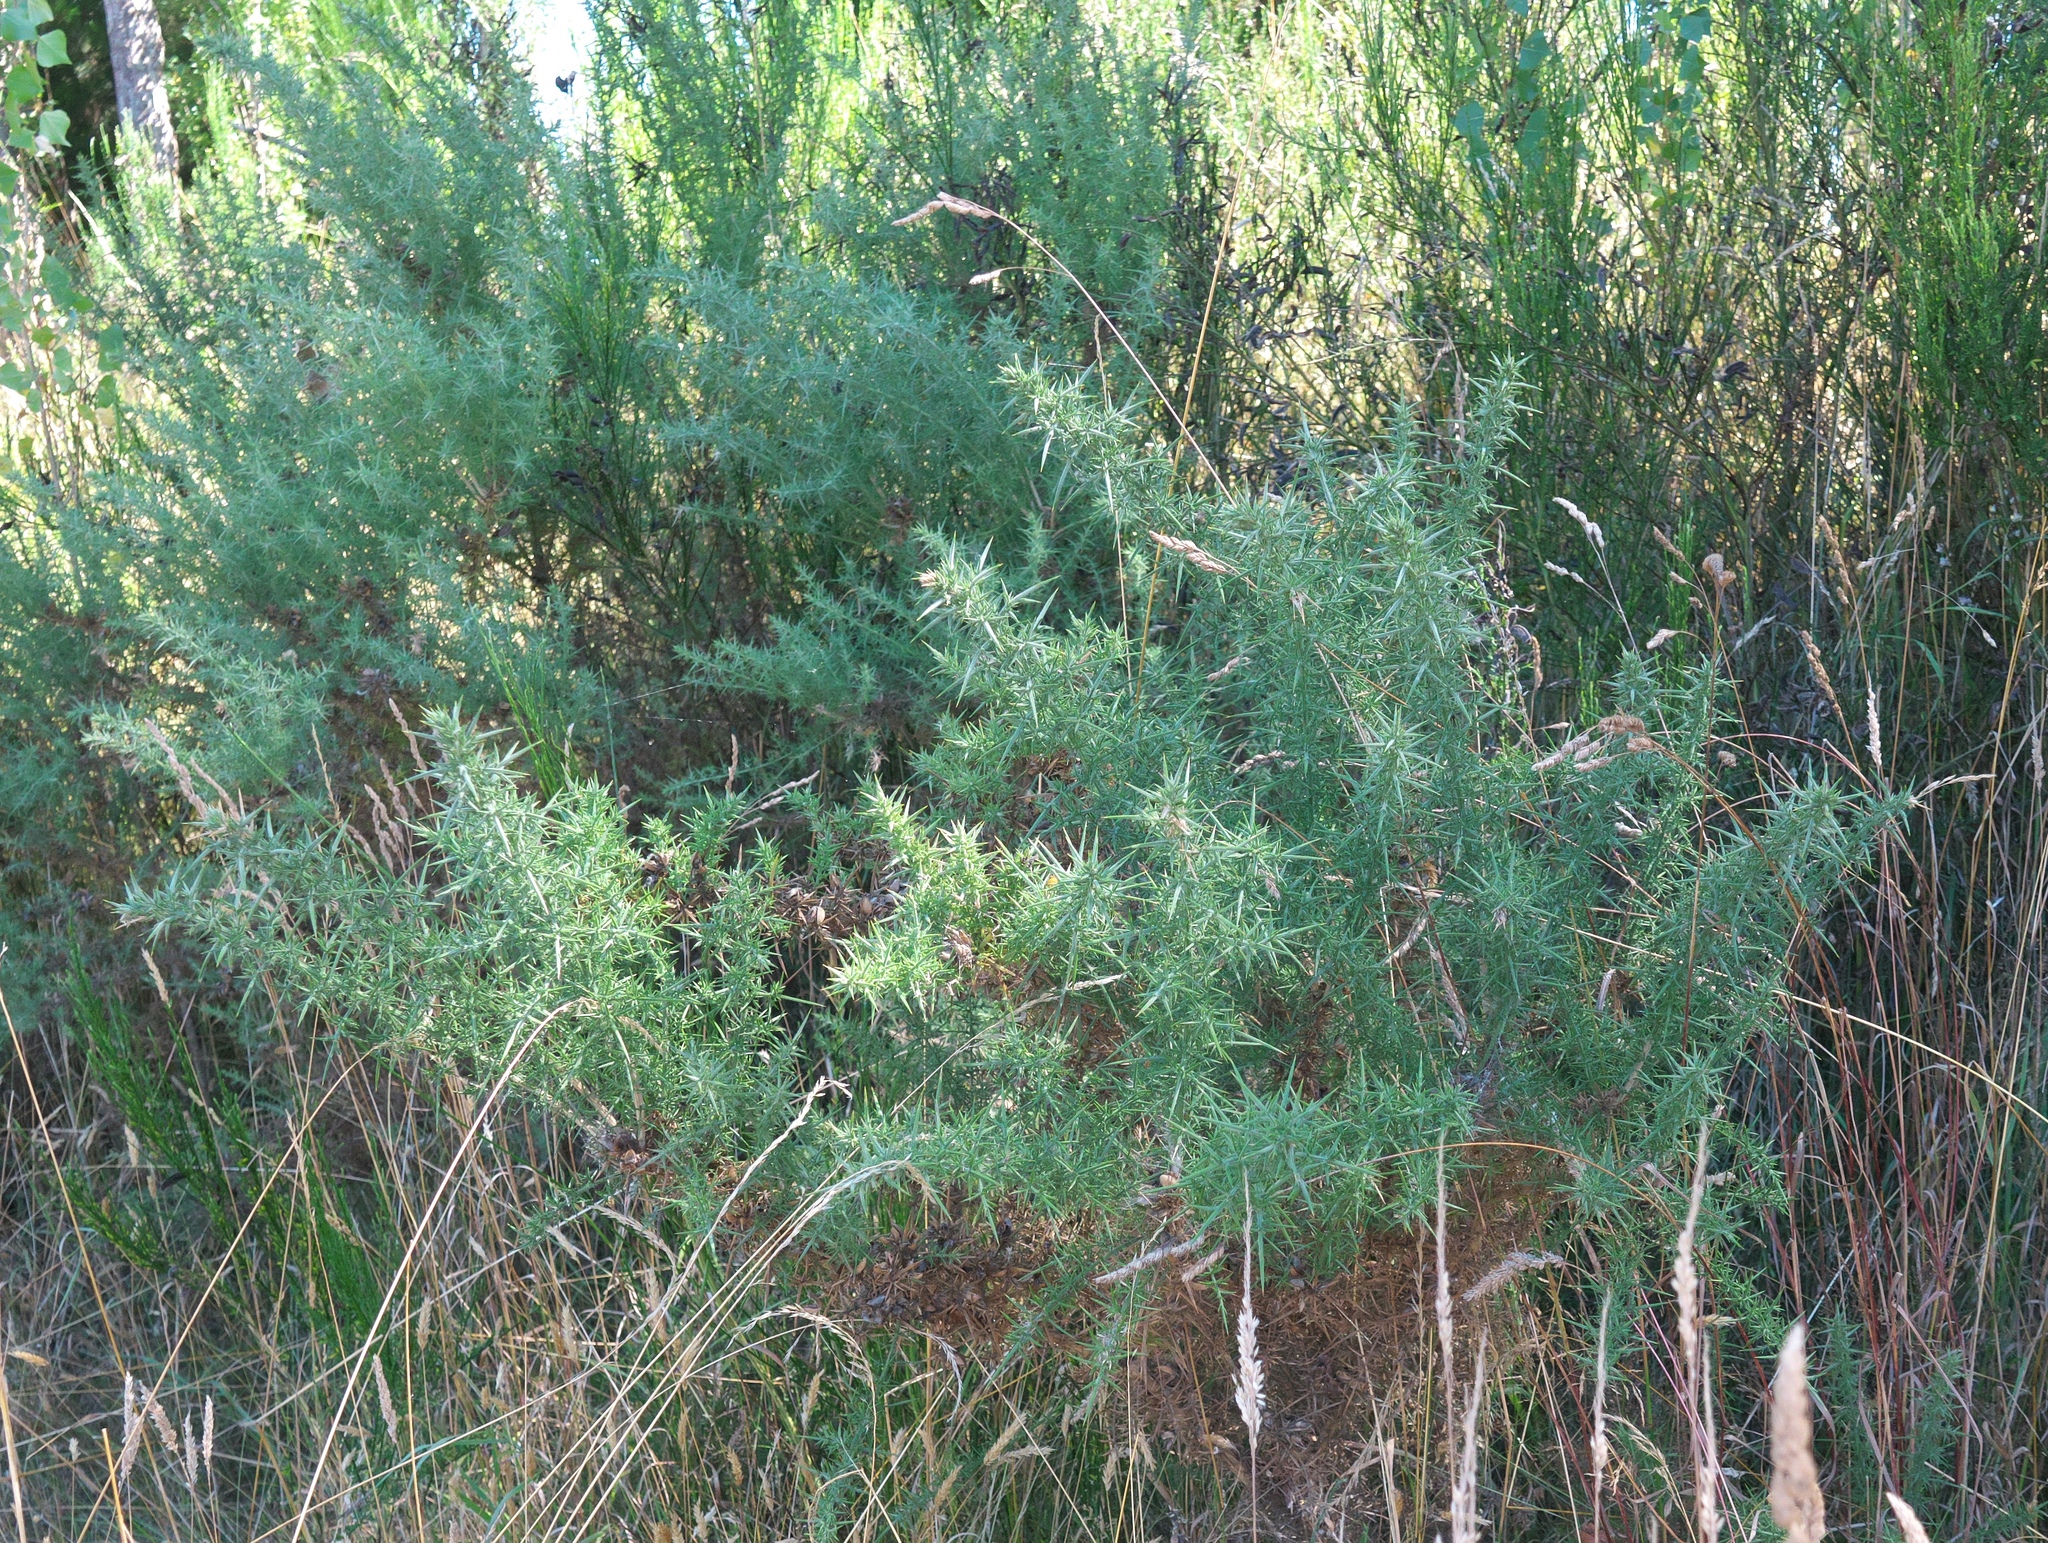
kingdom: Plantae
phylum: Tracheophyta
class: Magnoliopsida
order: Fabales
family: Fabaceae
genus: Ulex
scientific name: Ulex europaeus
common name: Common gorse
